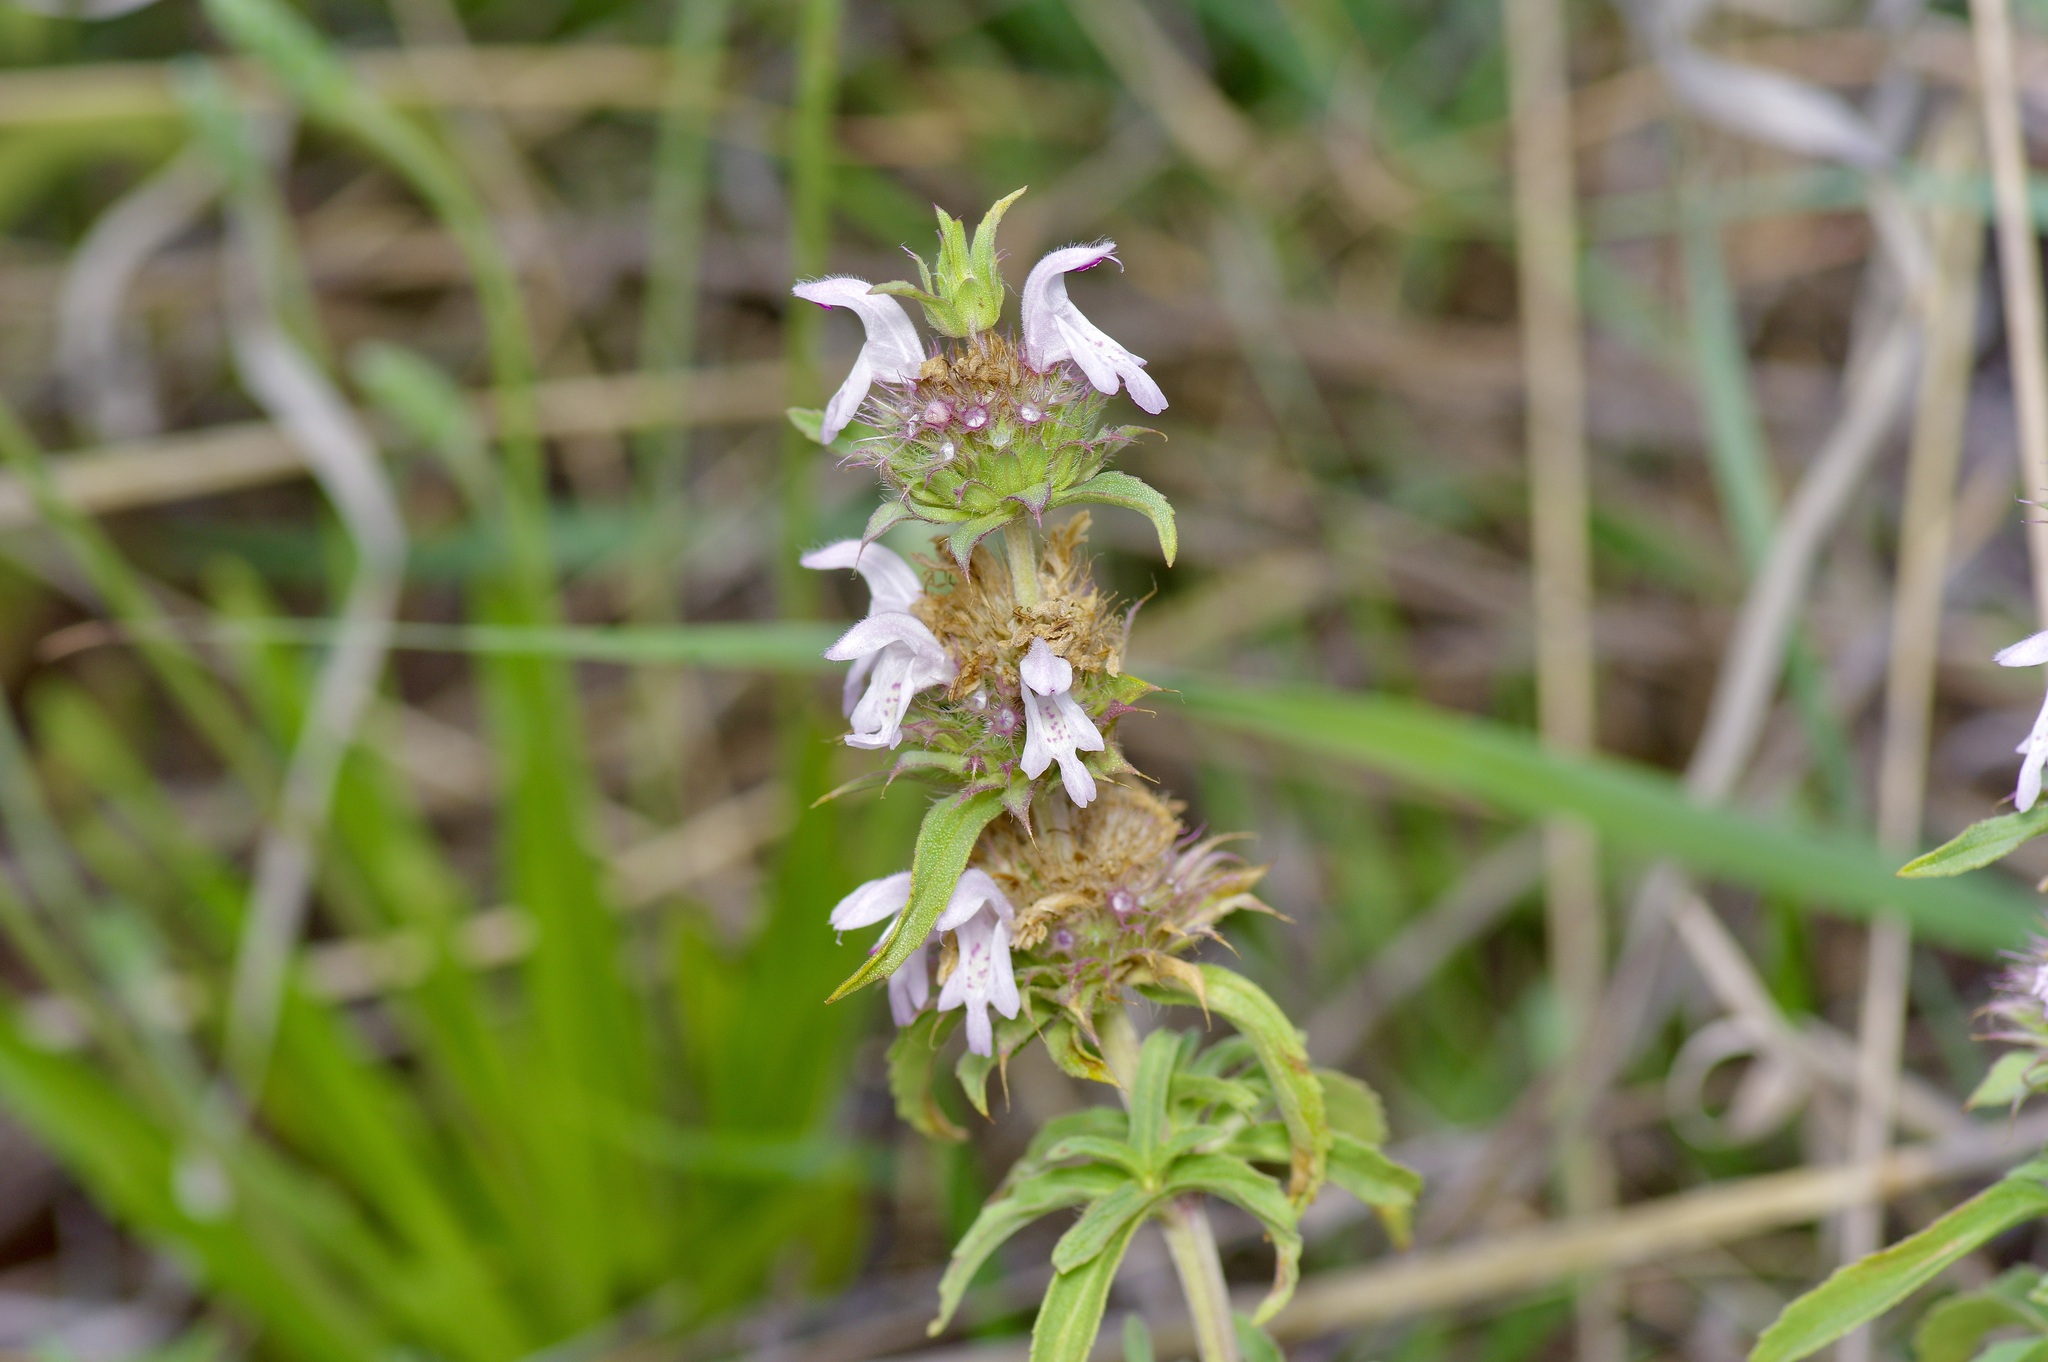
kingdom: Plantae
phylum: Tracheophyta
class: Magnoliopsida
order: Lamiales
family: Lamiaceae
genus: Monarda
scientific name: Monarda pectinata
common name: Plains beebalm
